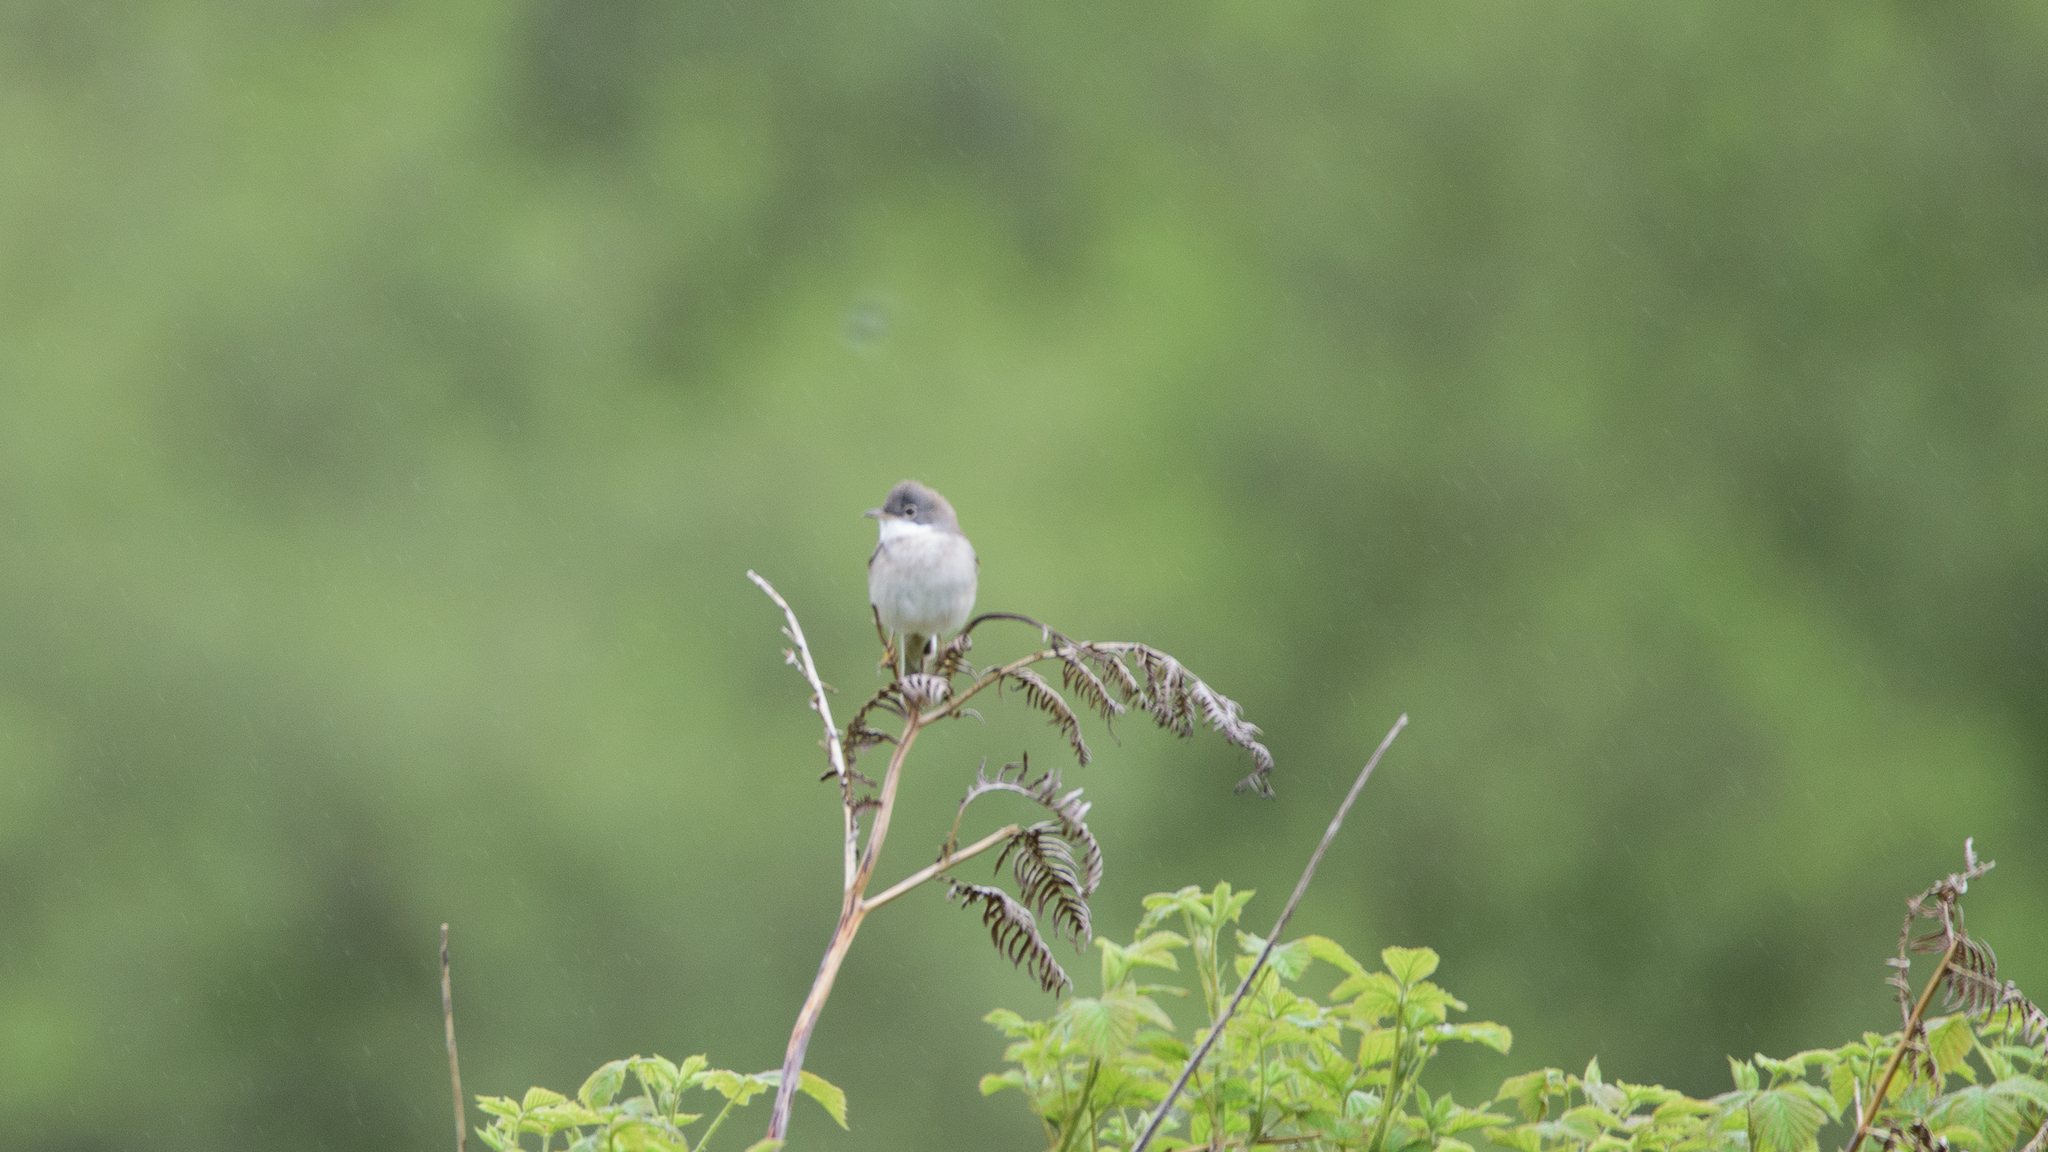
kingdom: Animalia
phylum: Chordata
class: Aves
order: Passeriformes
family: Sylviidae
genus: Sylvia
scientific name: Sylvia communis
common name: Common whitethroat
